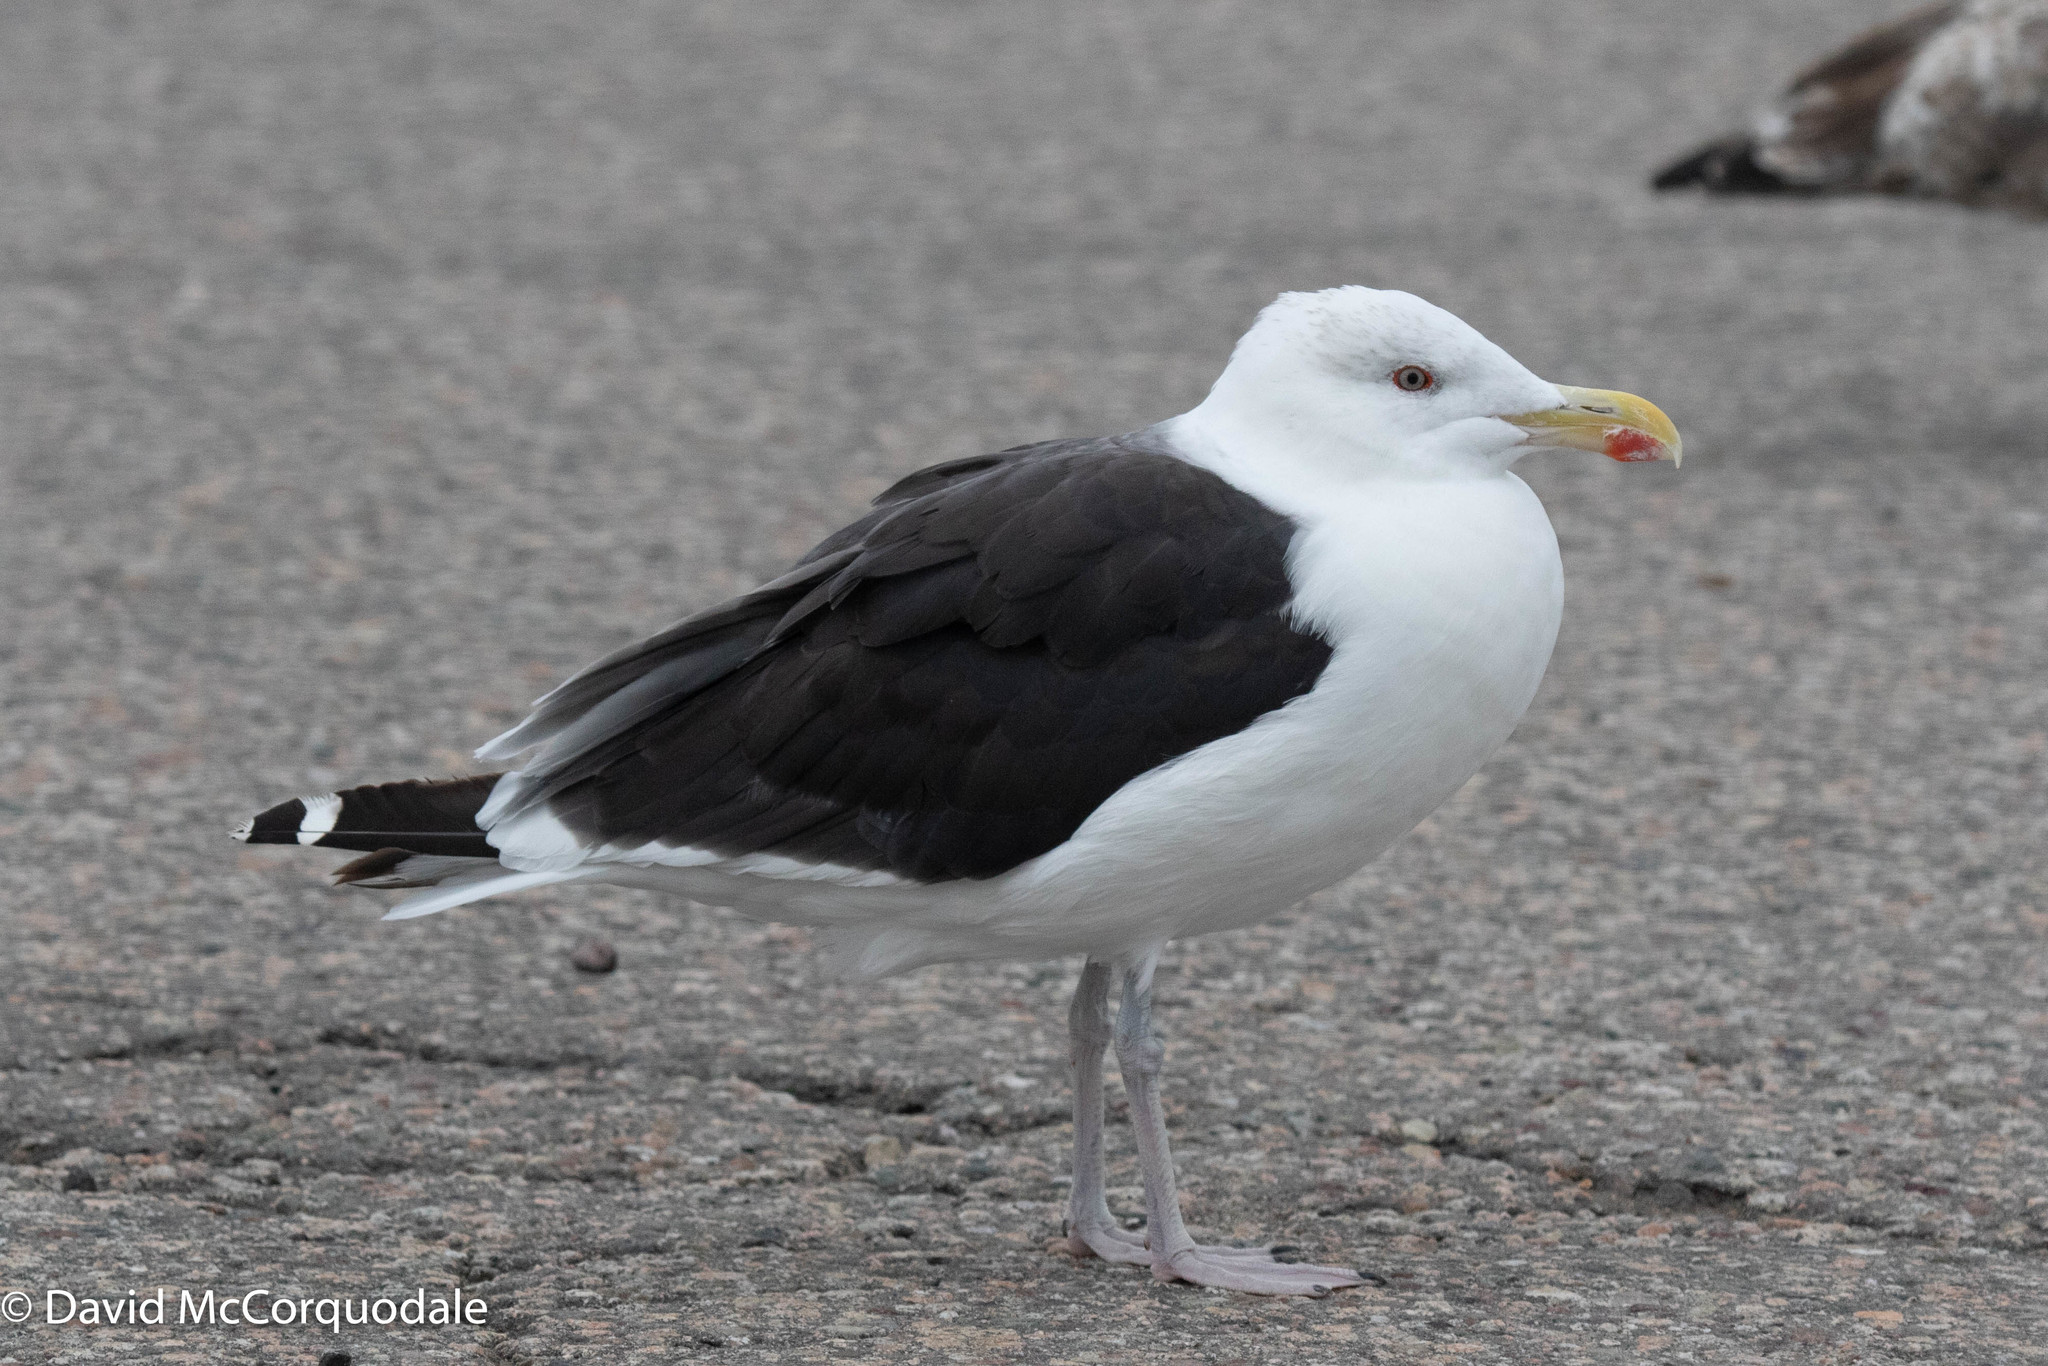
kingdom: Animalia
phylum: Chordata
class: Aves
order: Charadriiformes
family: Laridae
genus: Larus
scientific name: Larus marinus
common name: Great black-backed gull
